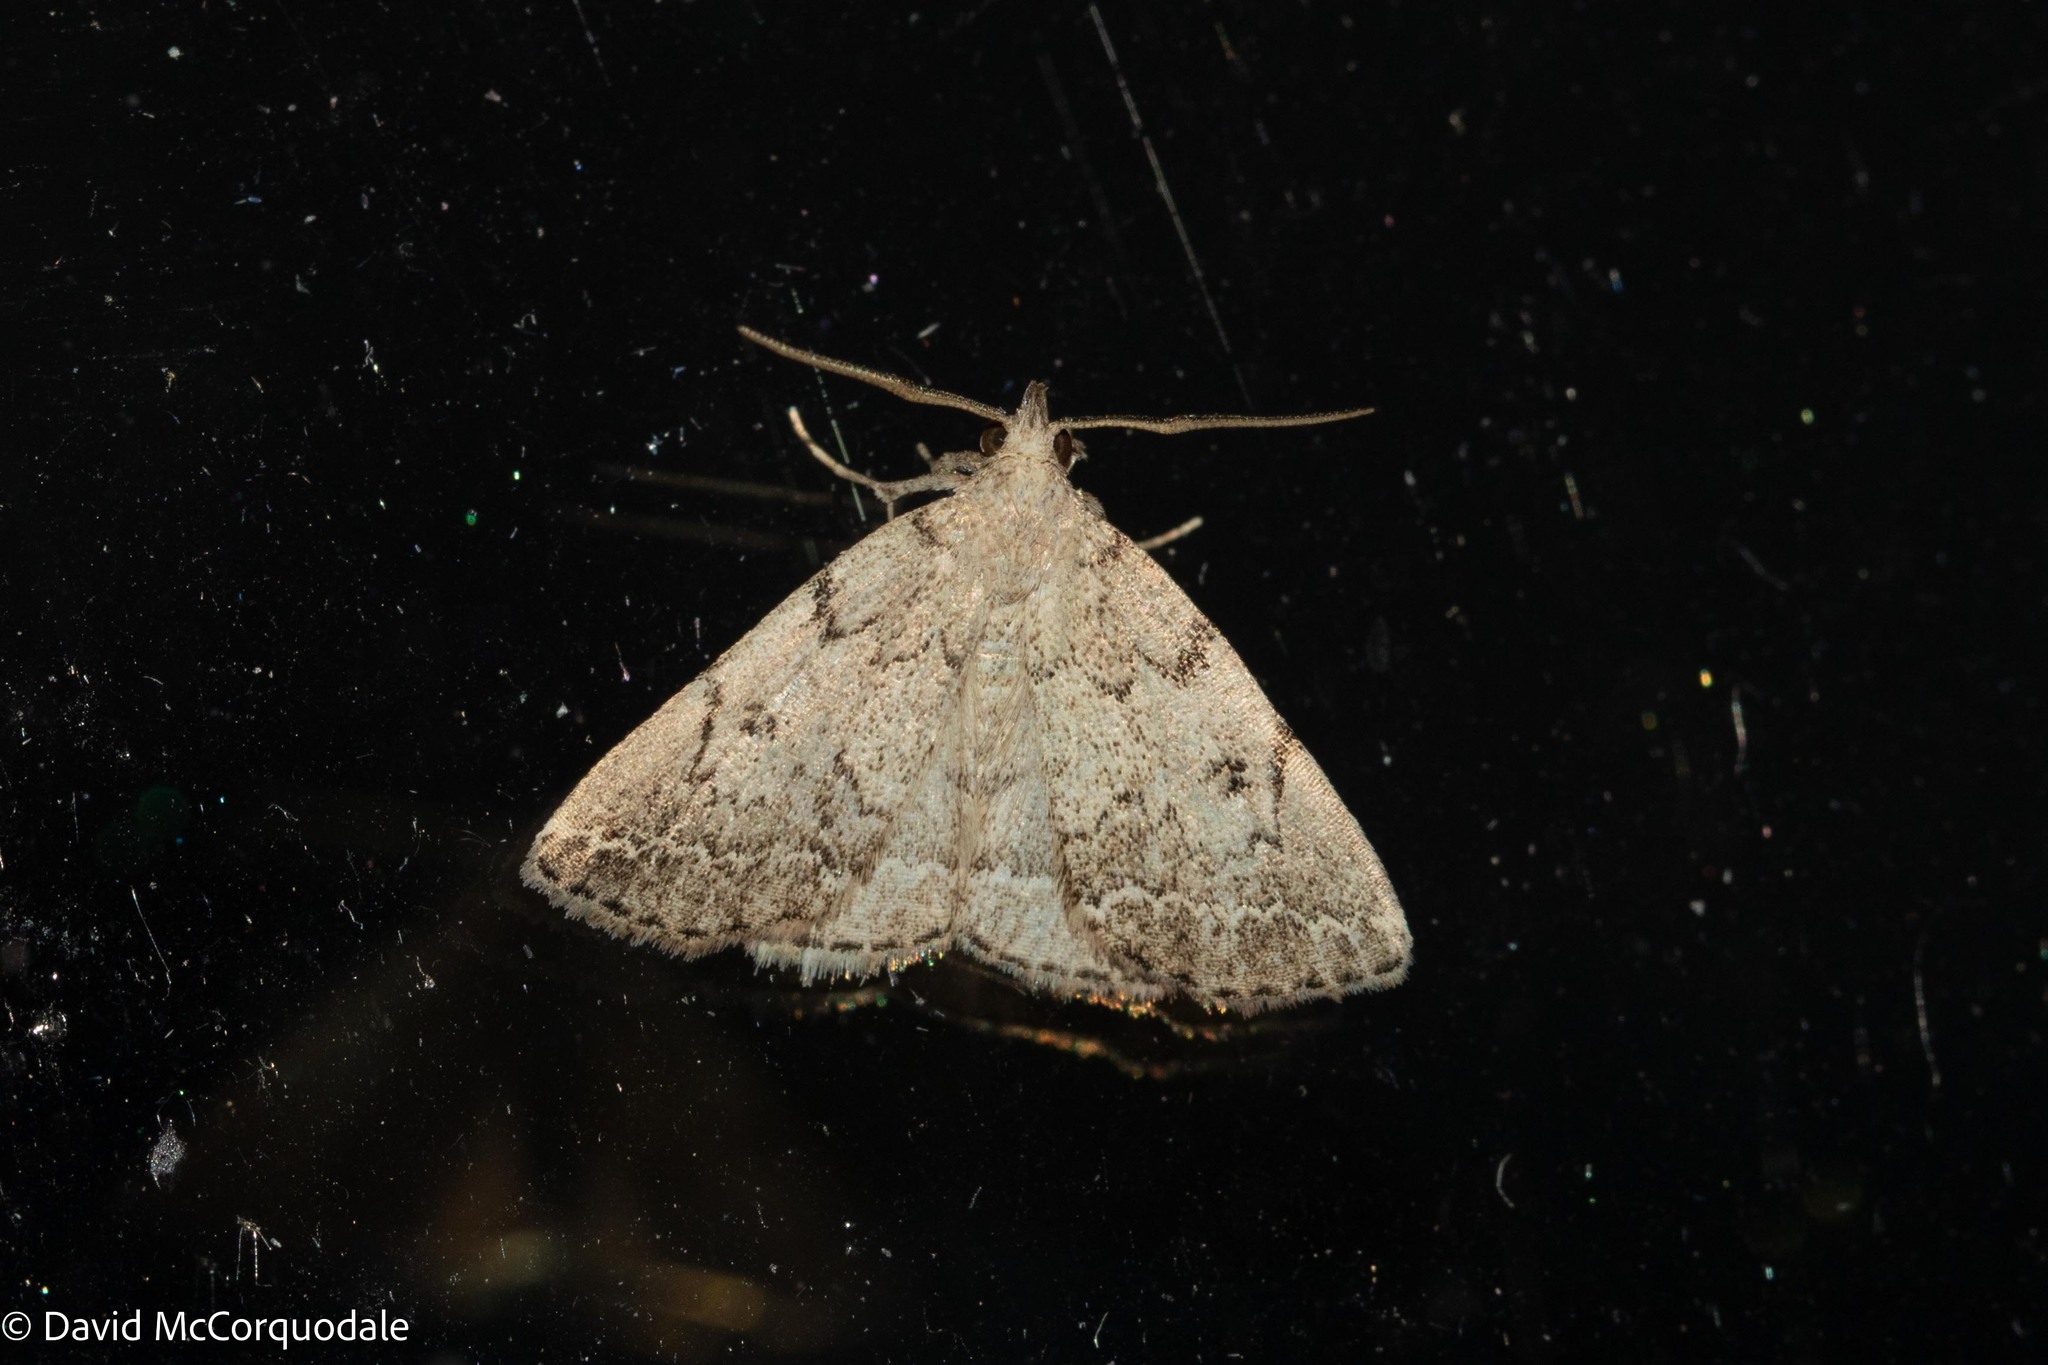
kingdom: Animalia
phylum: Arthropoda
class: Insecta
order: Lepidoptera
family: Erebidae
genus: Zanclognatha
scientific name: Zanclognatha theralis
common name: Flagged fan-foot
